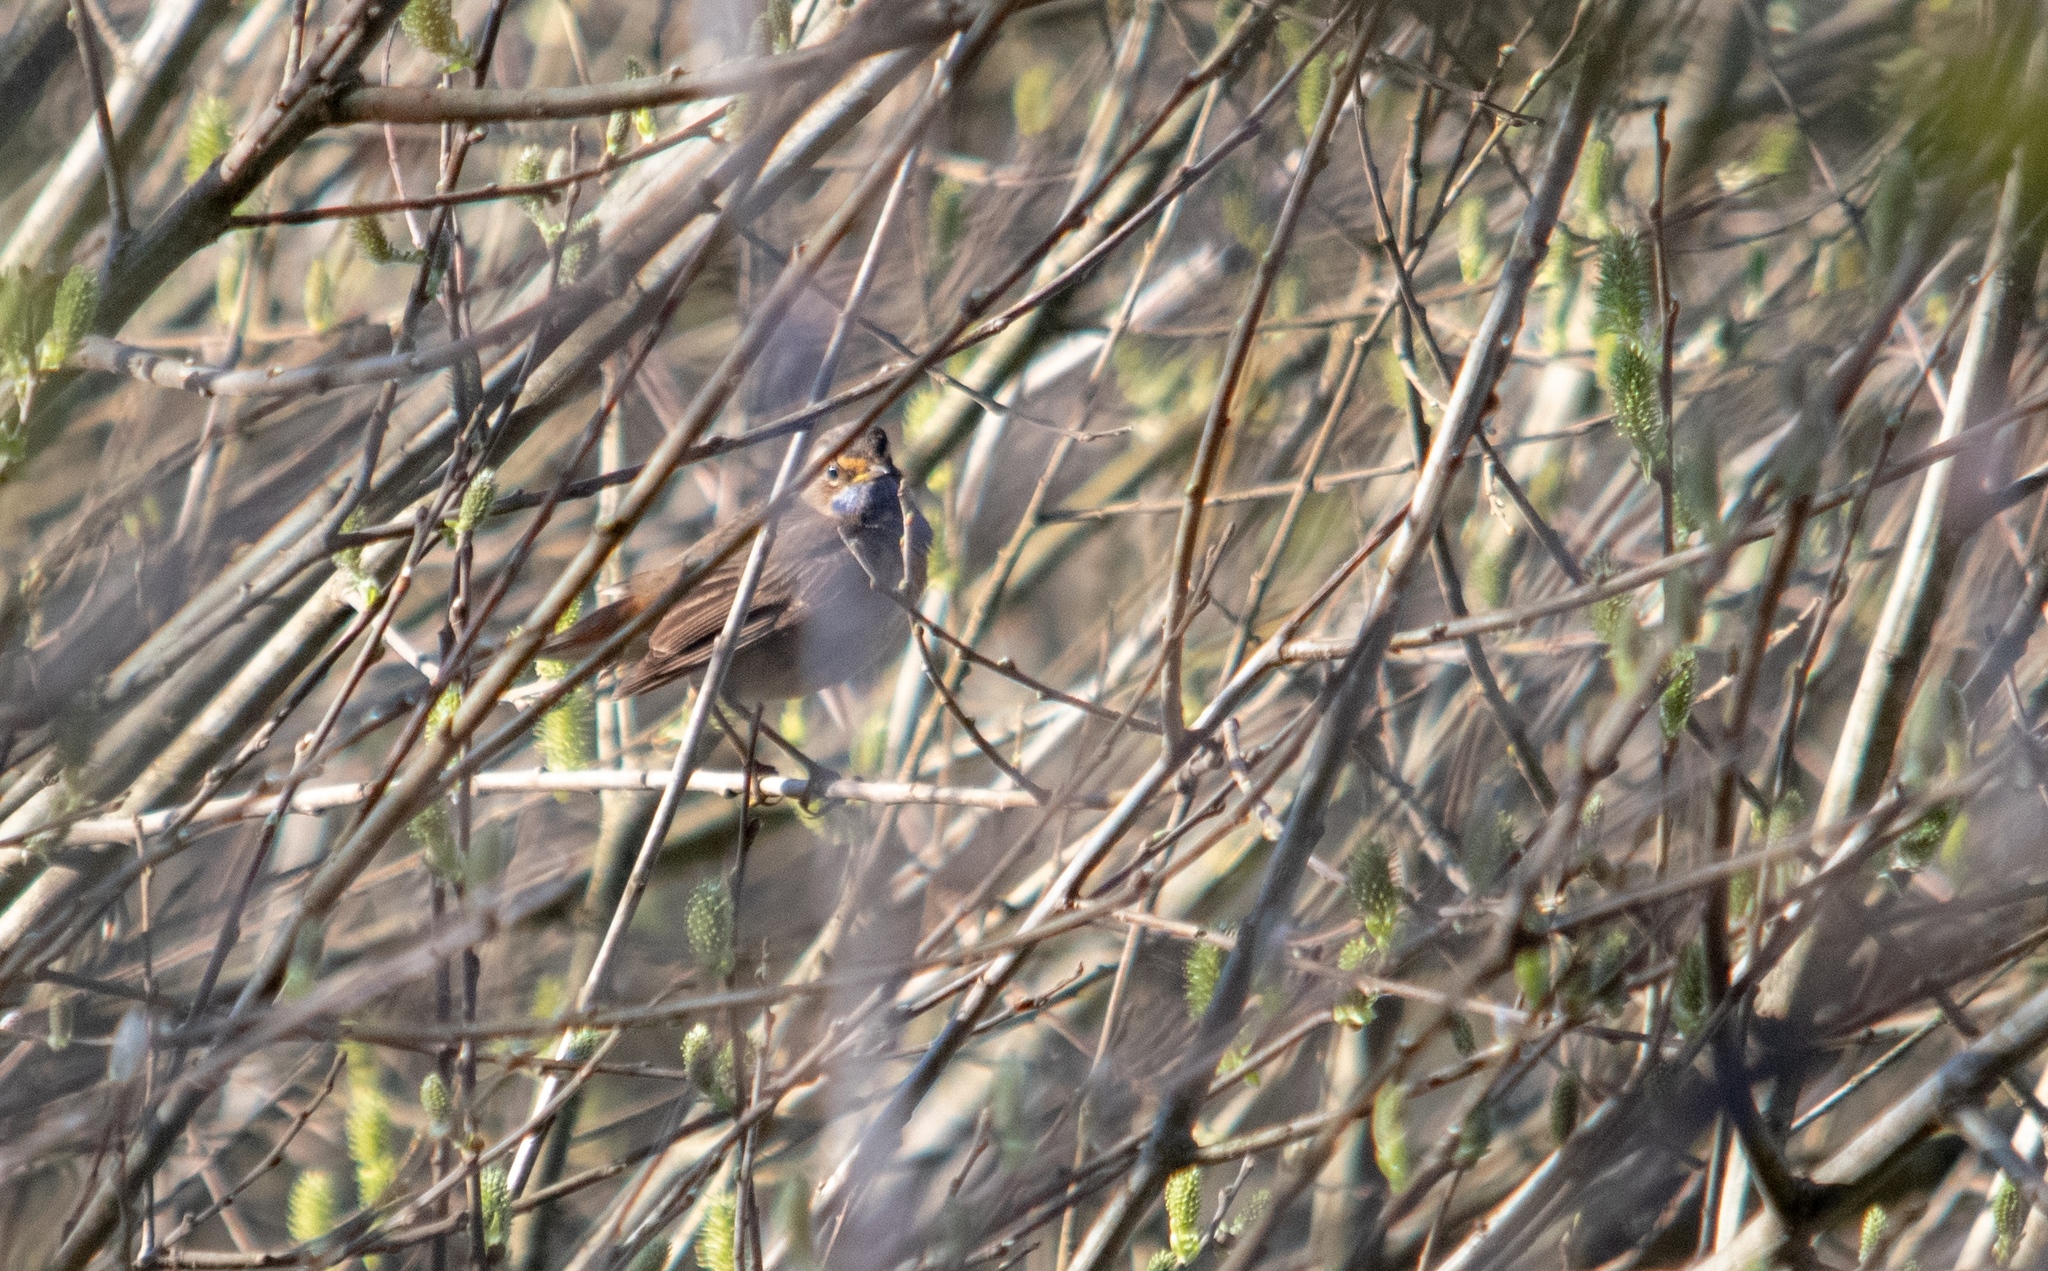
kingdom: Animalia
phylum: Chordata
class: Aves
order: Passeriformes
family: Muscicapidae
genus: Luscinia
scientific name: Luscinia svecica
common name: Bluethroat
